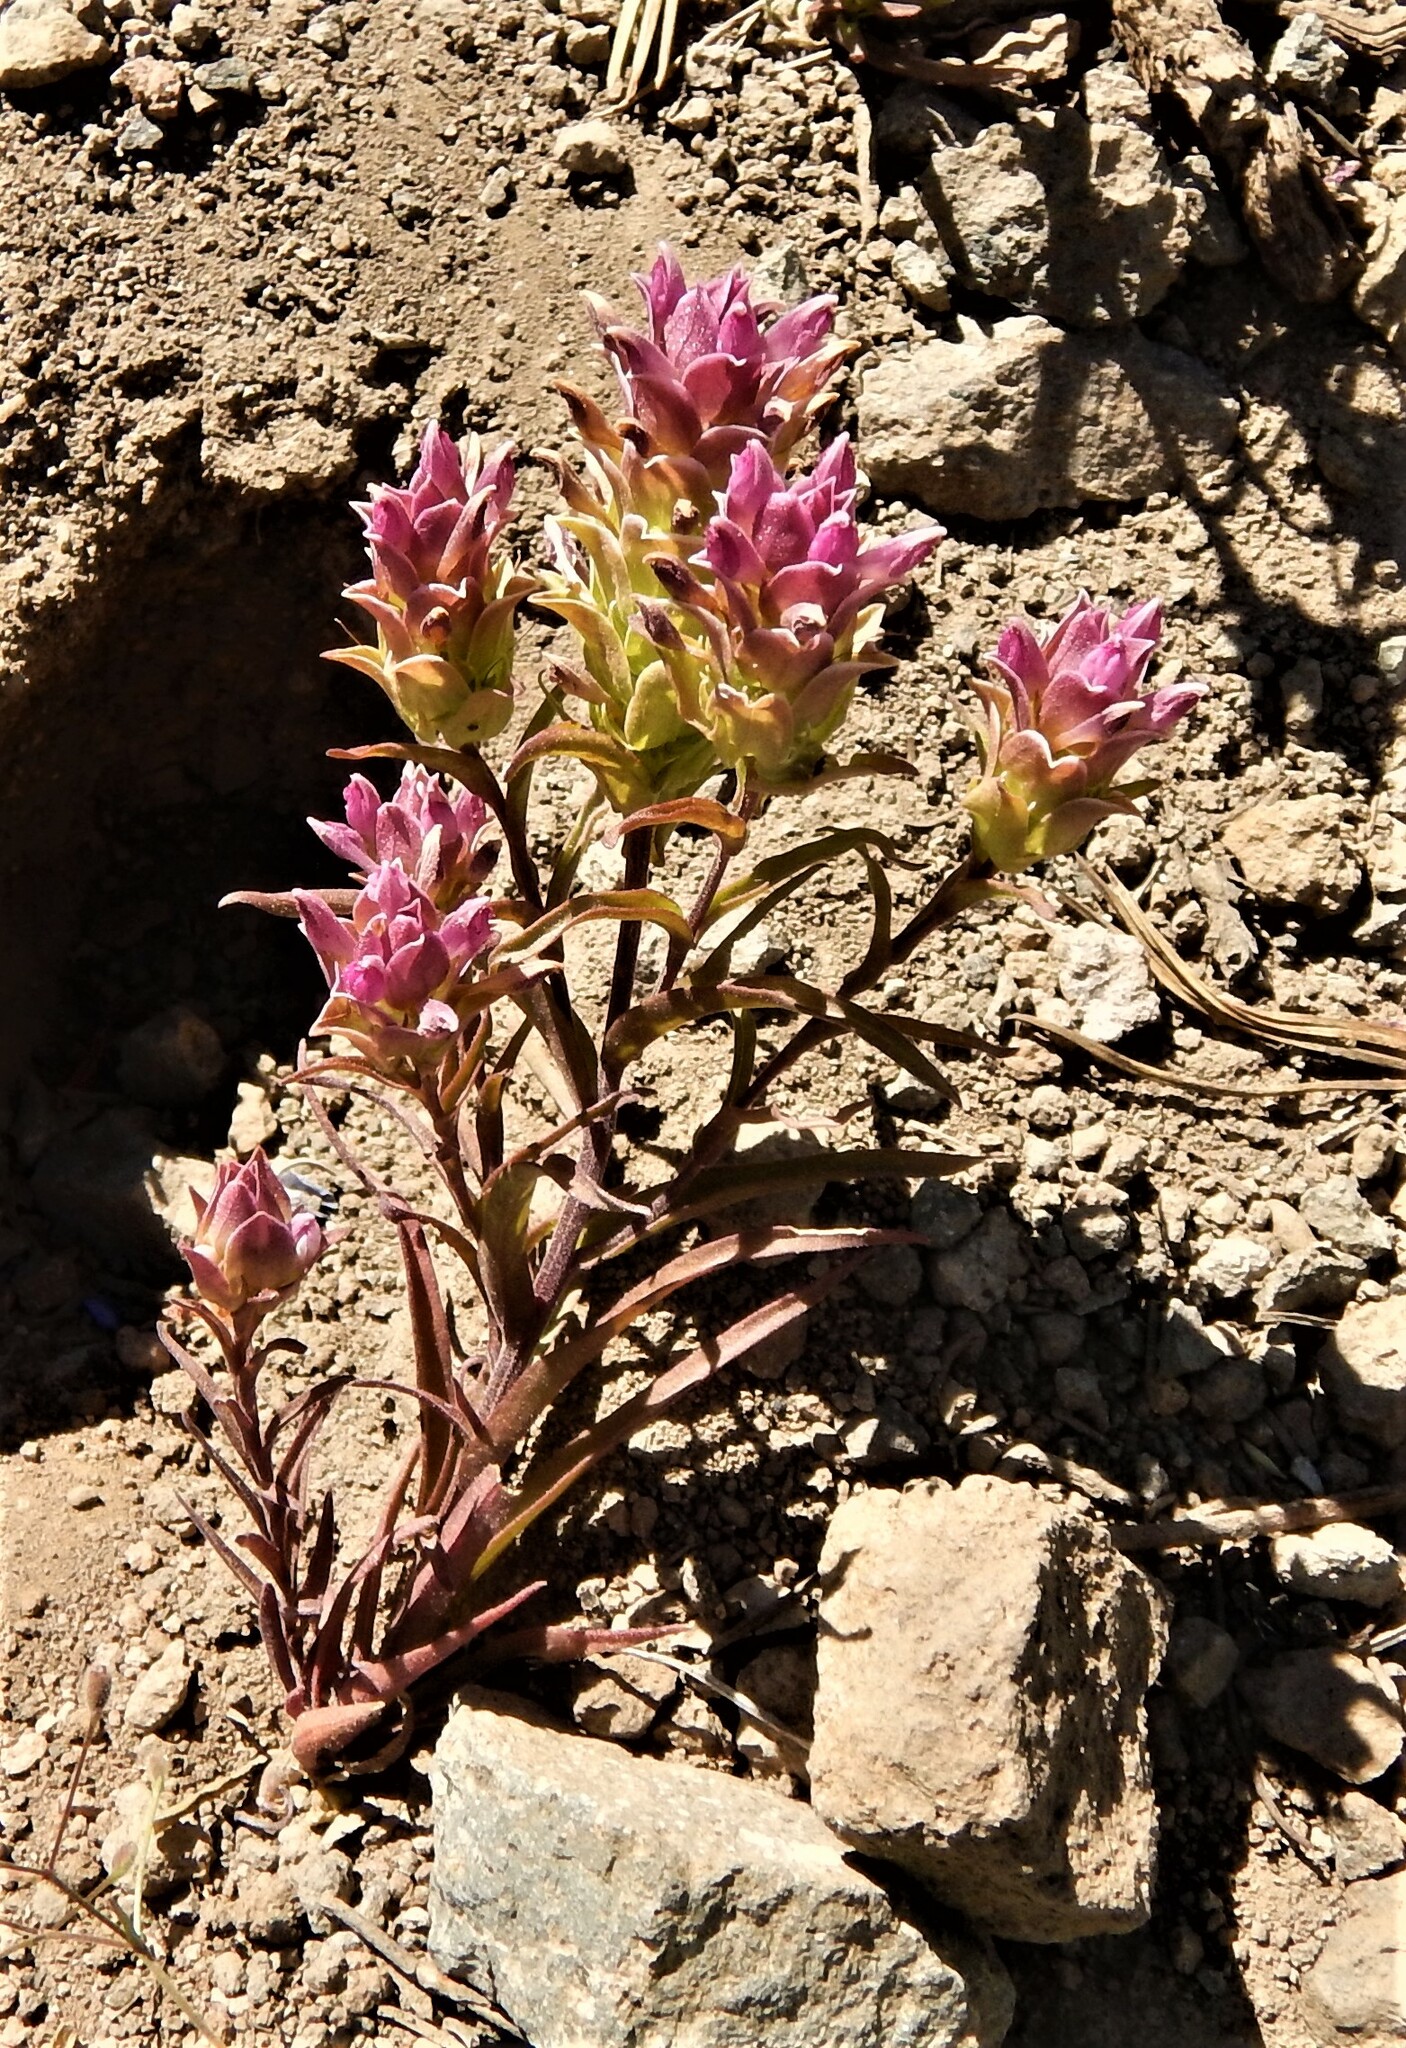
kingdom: Plantae
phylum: Tracheophyta
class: Magnoliopsida
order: Lamiales
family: Orobanchaceae
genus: Orthocarpus
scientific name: Orthocarpus cuspidatus
